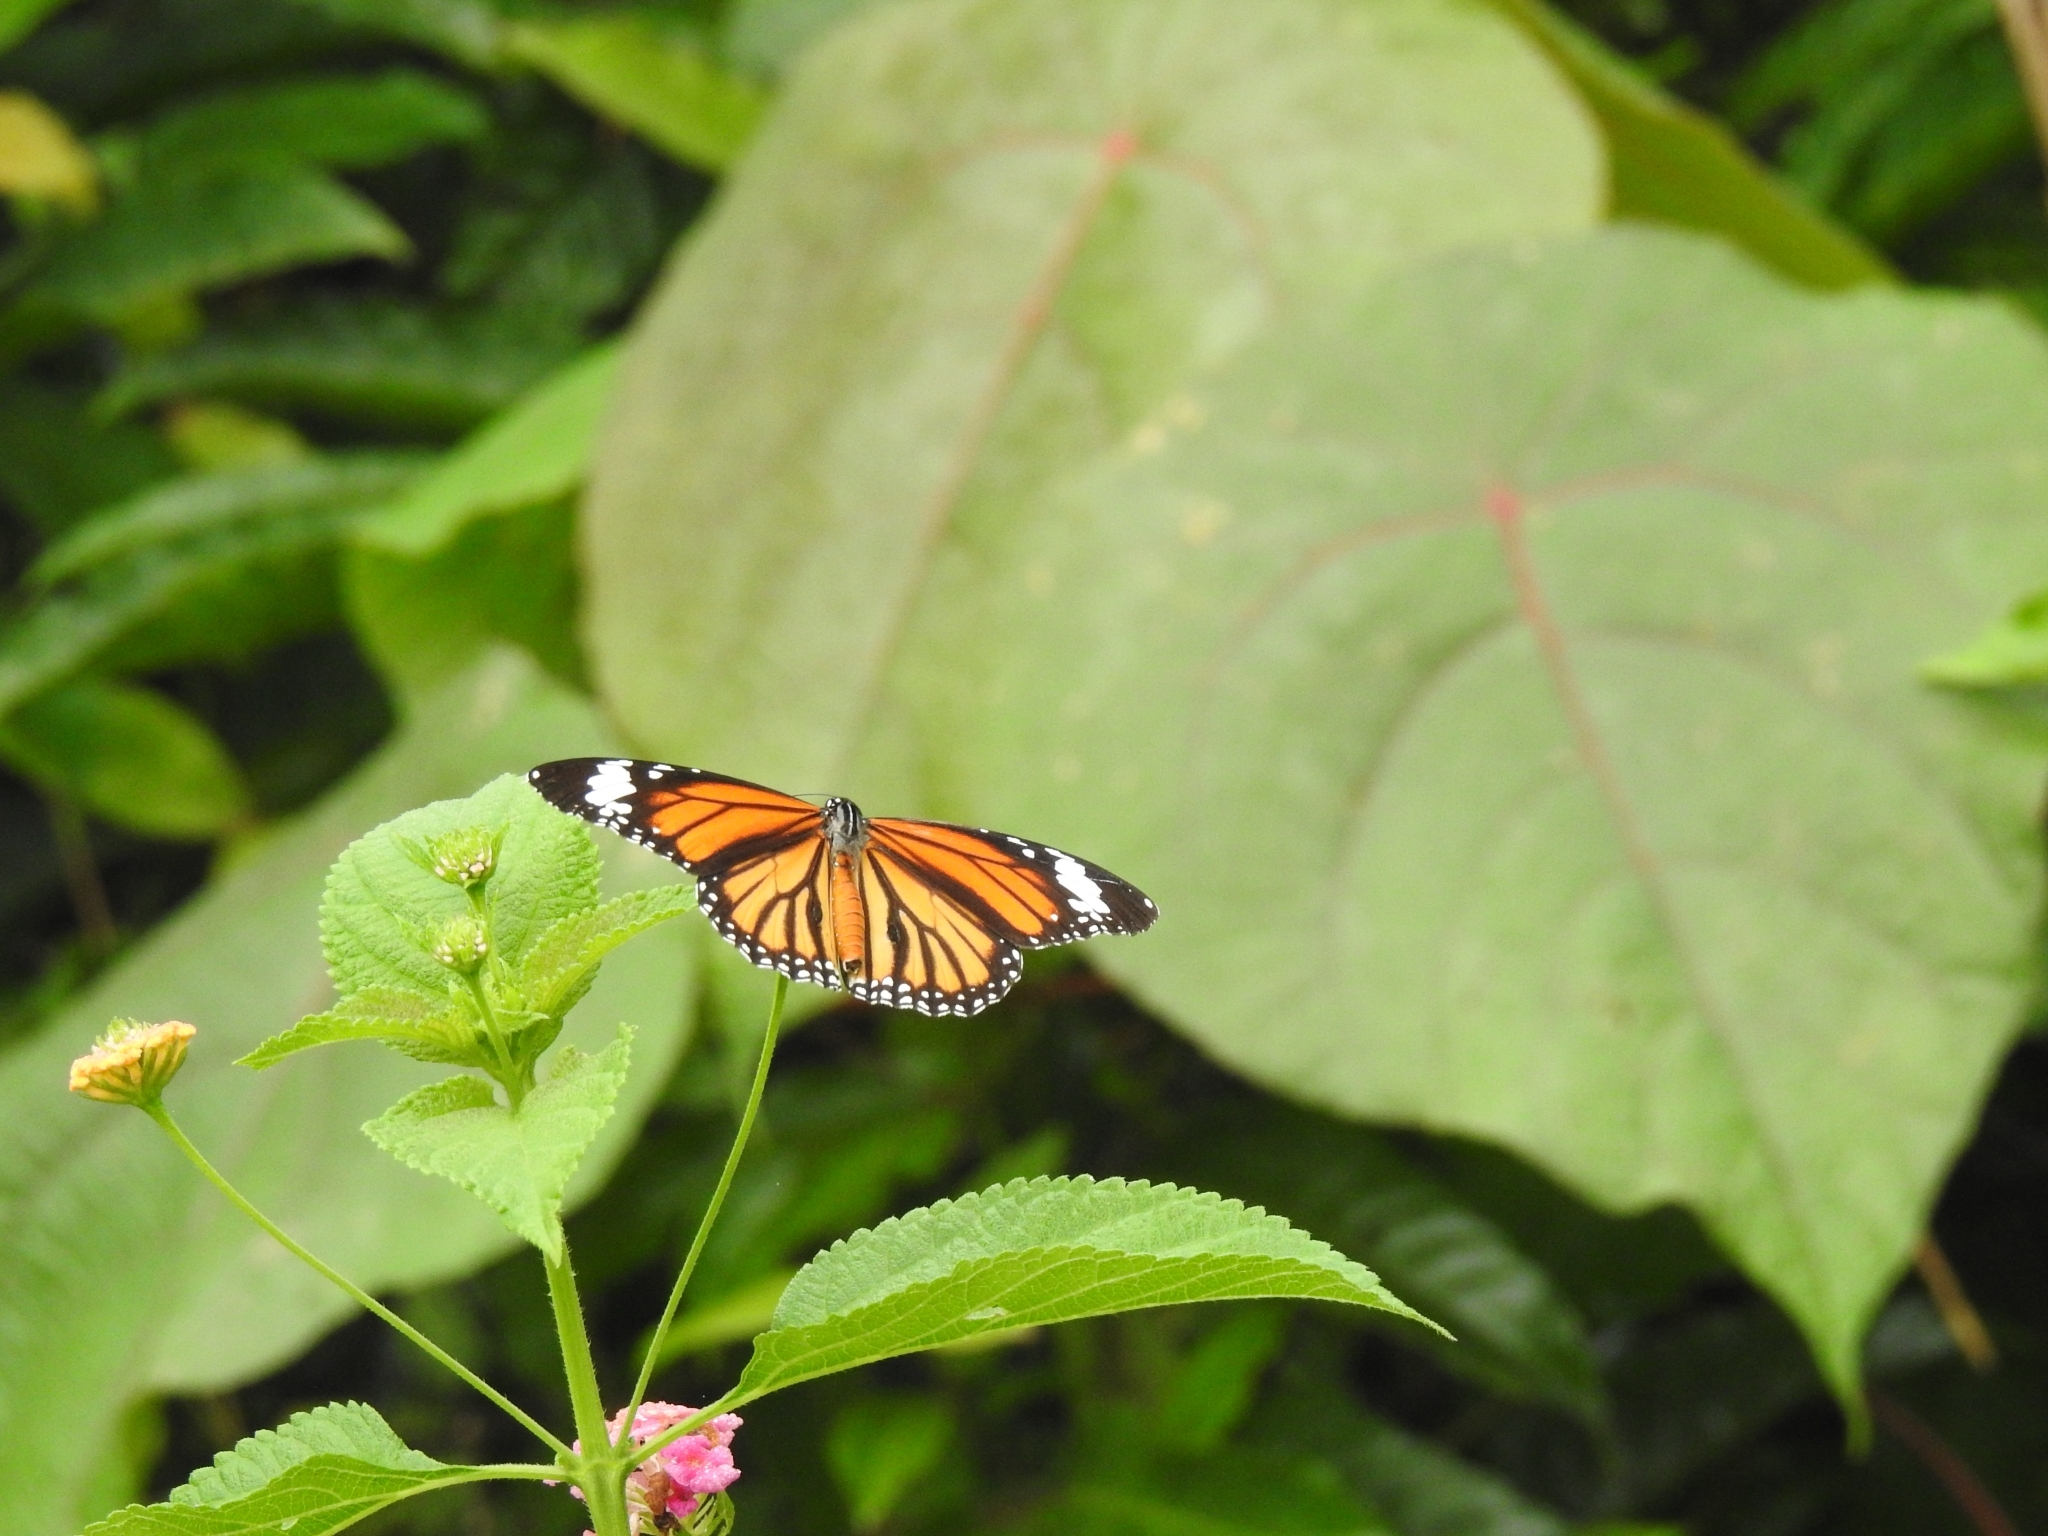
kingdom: Animalia
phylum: Arthropoda
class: Insecta
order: Lepidoptera
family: Nymphalidae
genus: Danaus
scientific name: Danaus genutia
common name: Common tiger butterfly
